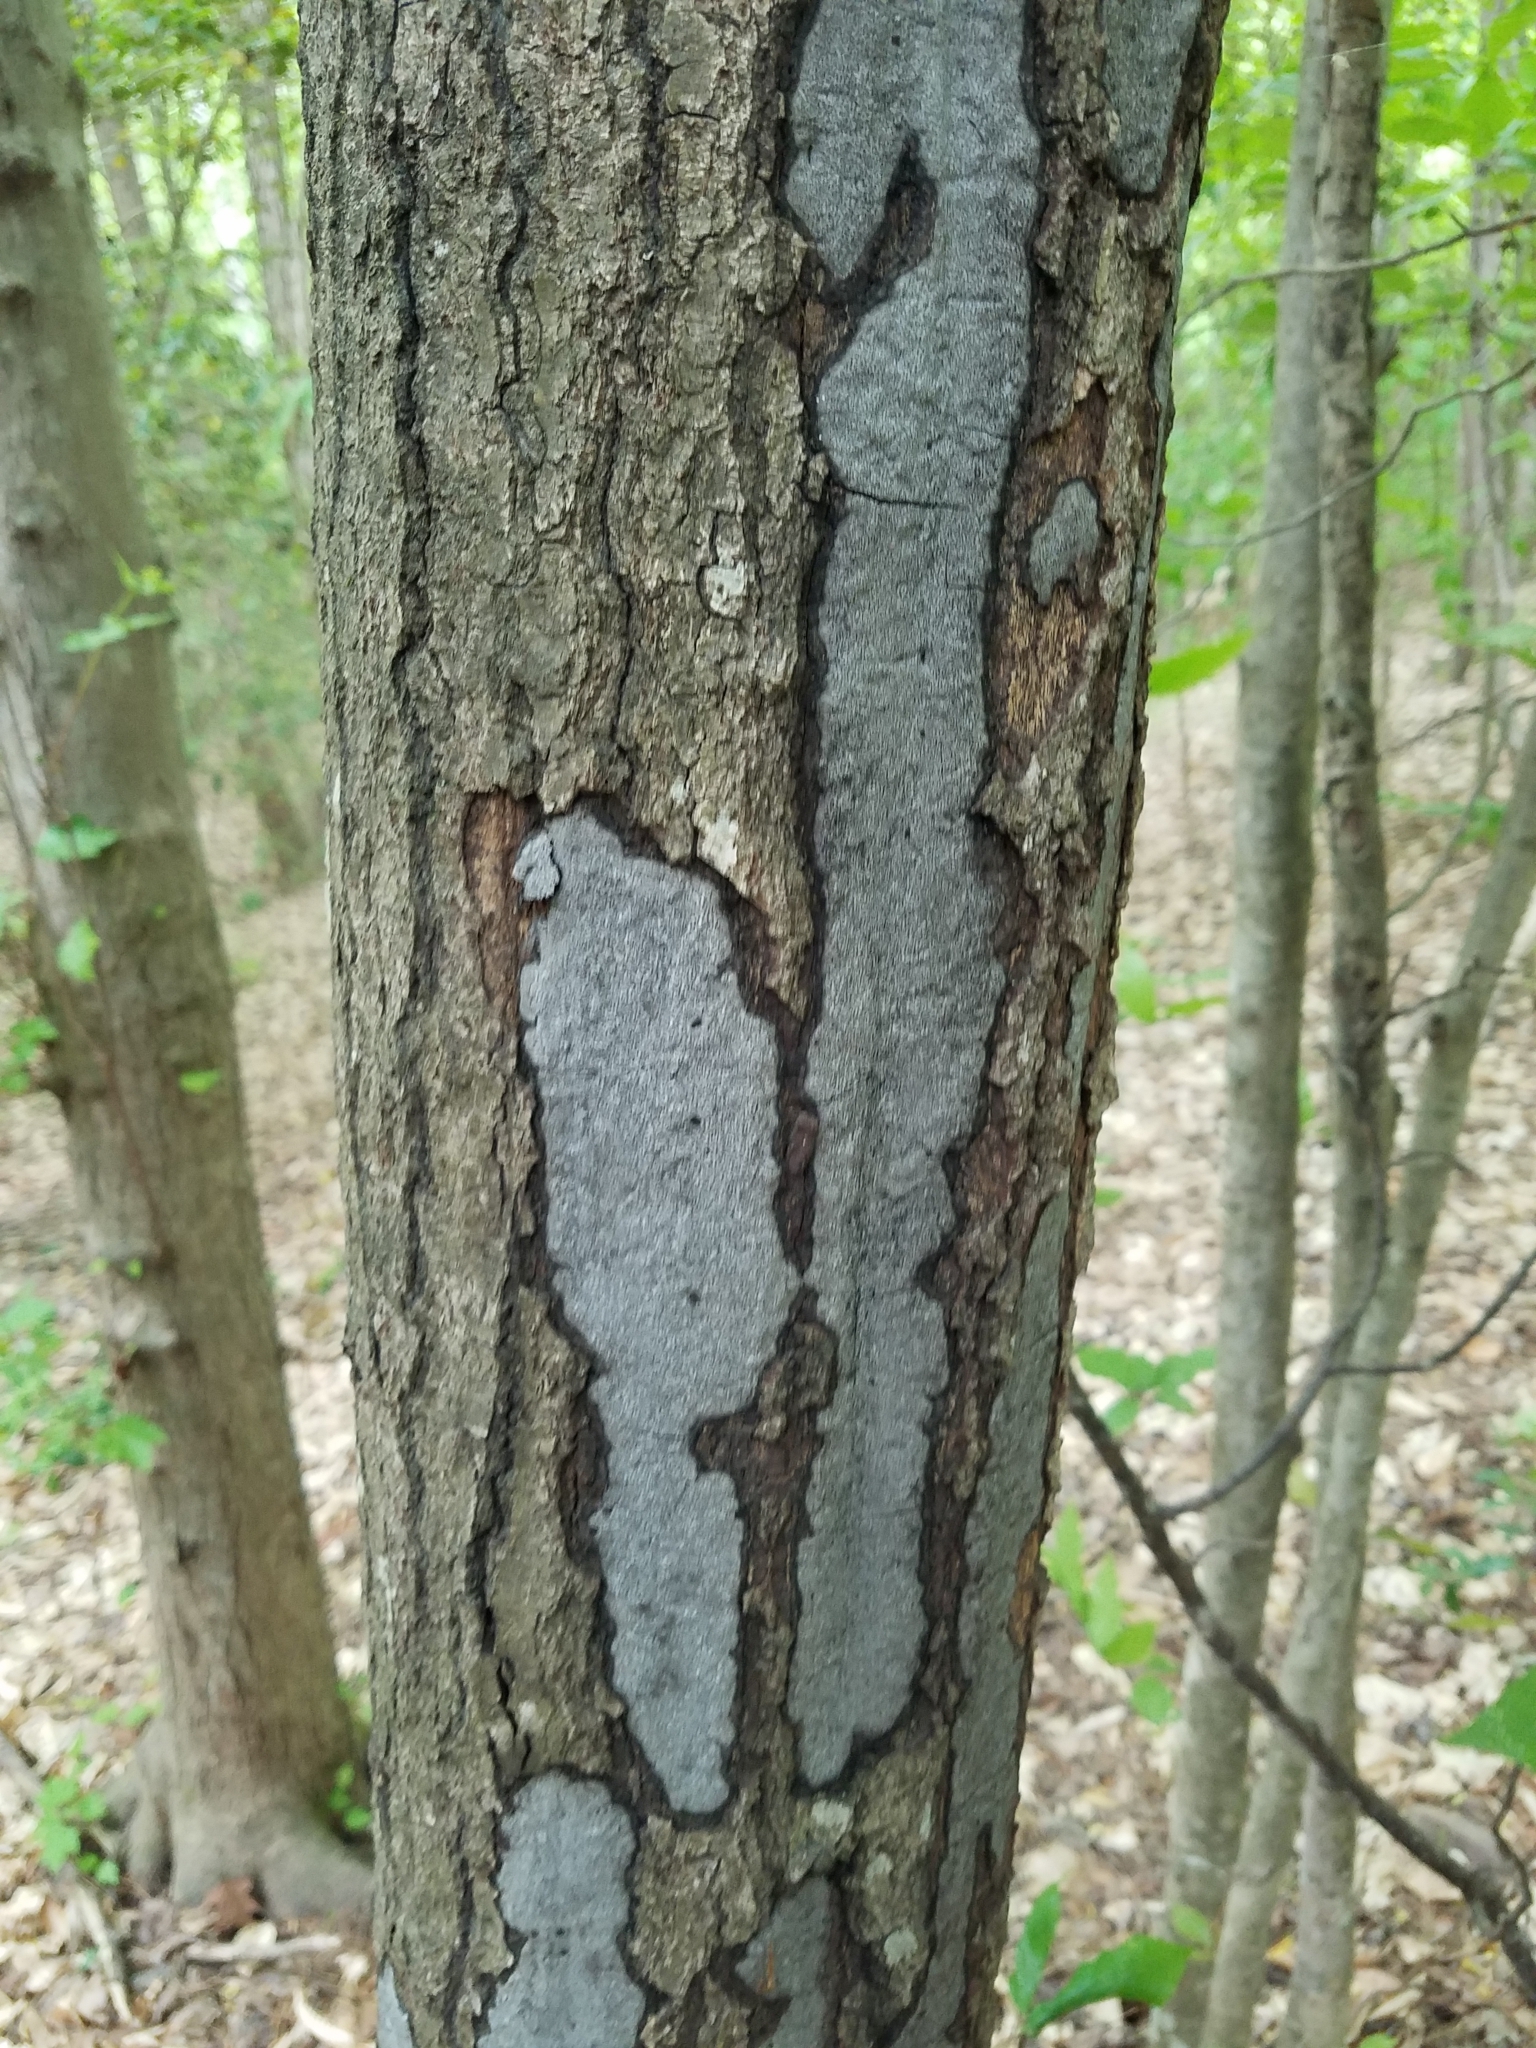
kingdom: Fungi
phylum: Ascomycota
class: Sordariomycetes
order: Xylariales
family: Graphostromataceae
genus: Biscogniauxia
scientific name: Biscogniauxia atropunctata
